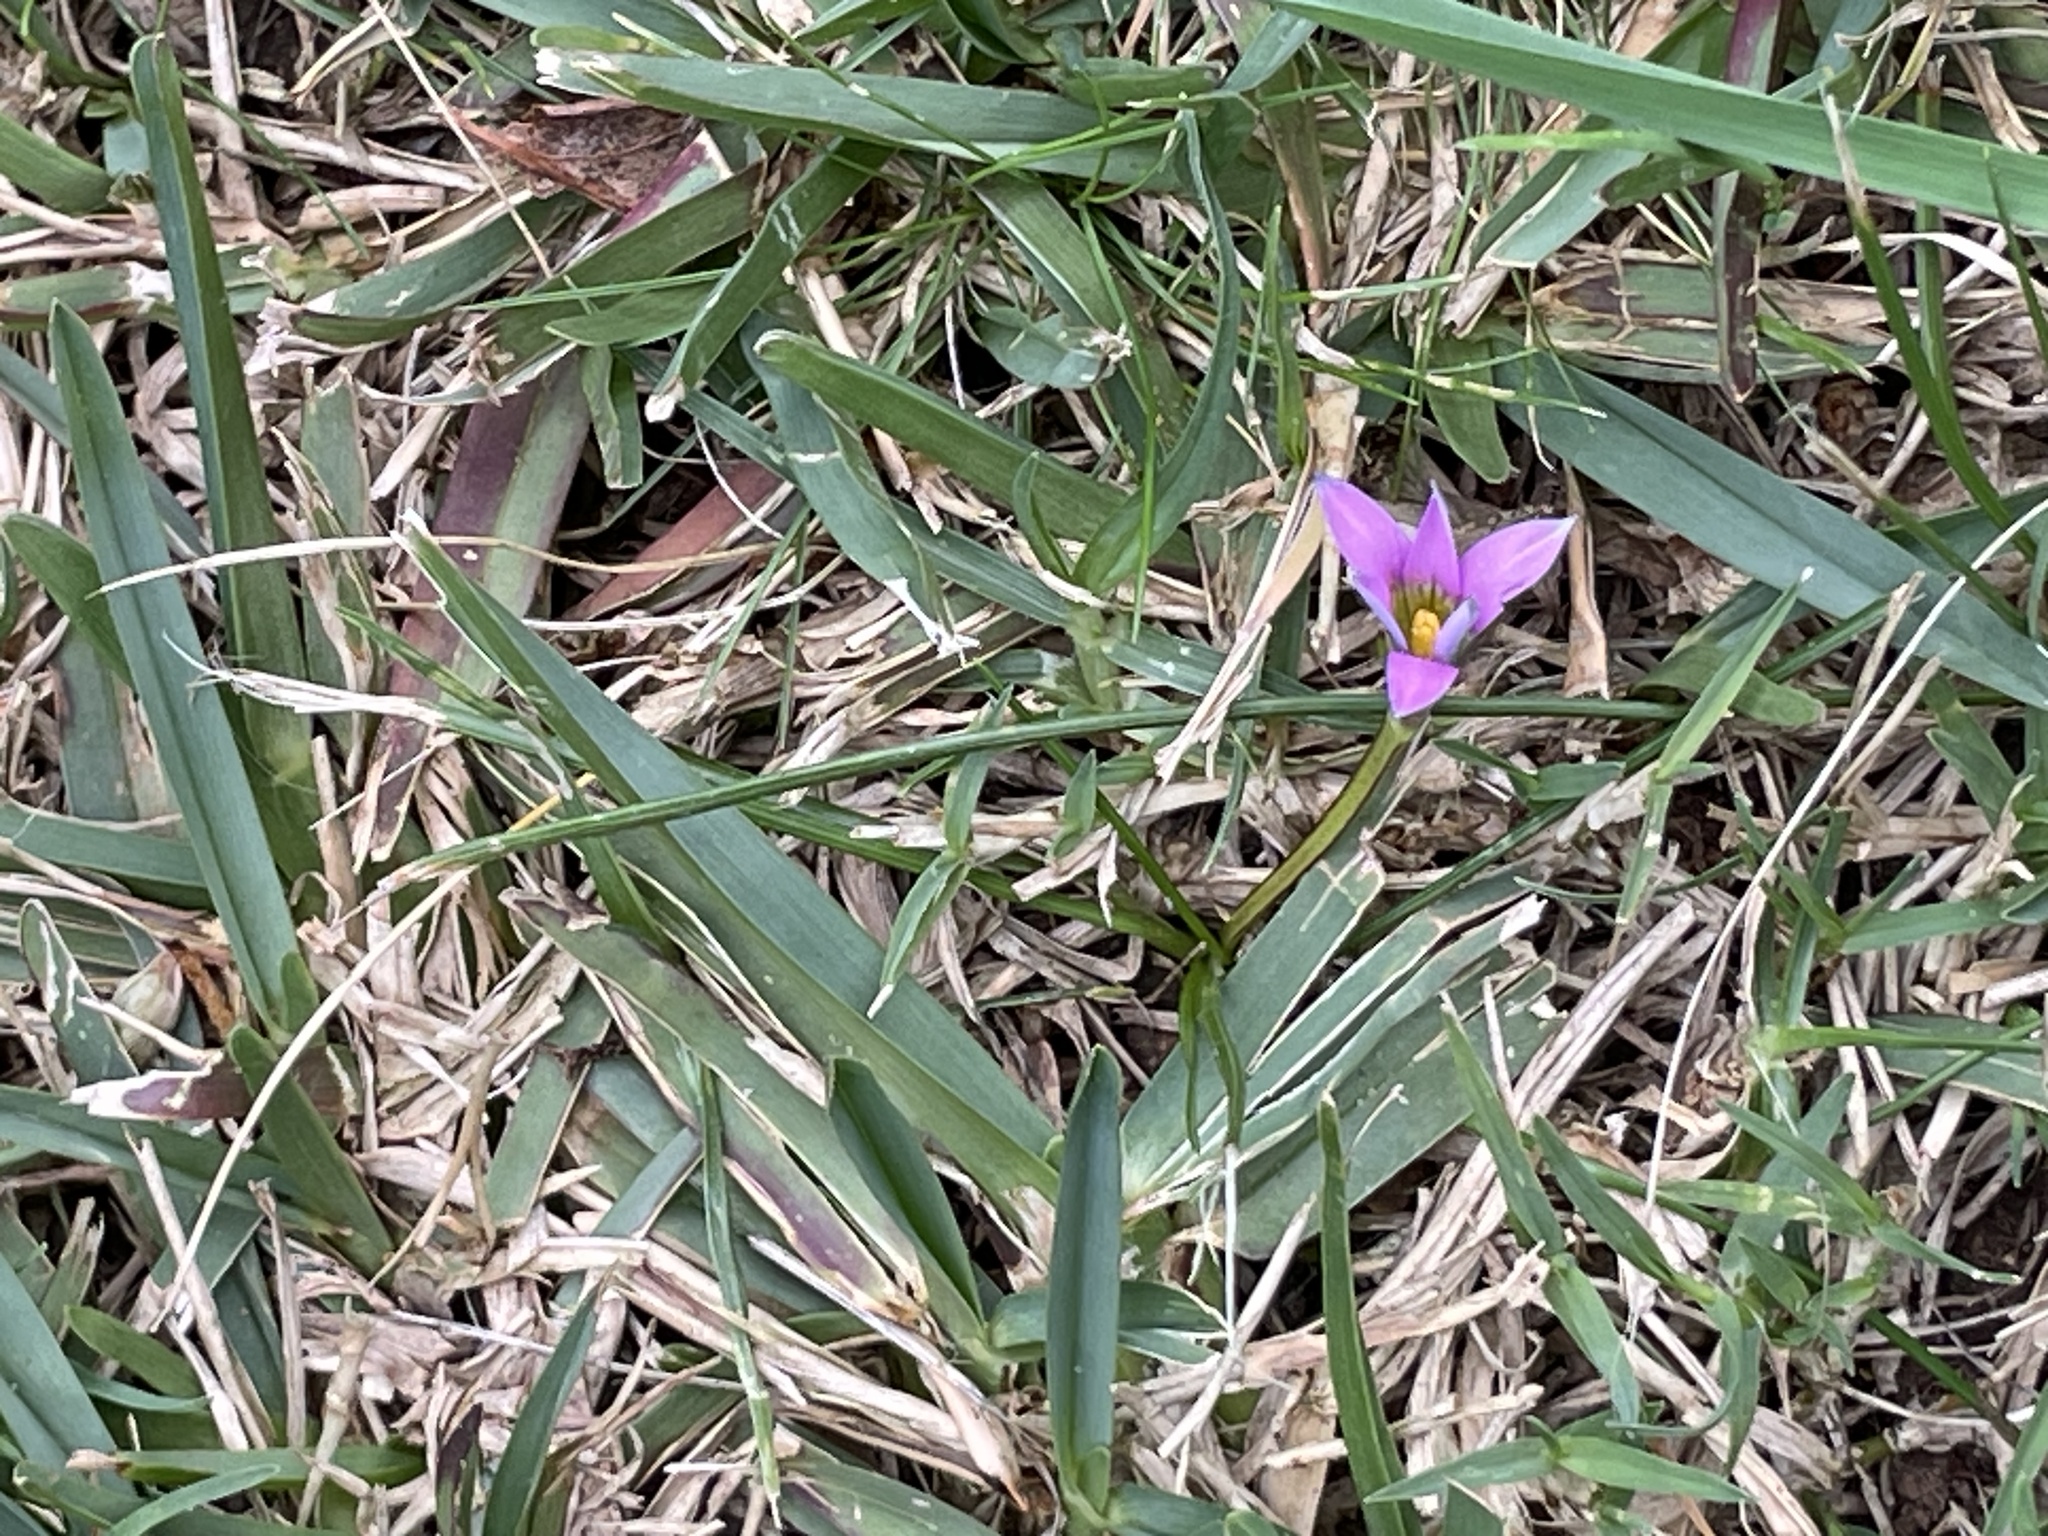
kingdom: Plantae
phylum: Tracheophyta
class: Liliopsida
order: Asparagales
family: Iridaceae
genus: Romulea
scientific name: Romulea rosea
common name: Oniongrass
